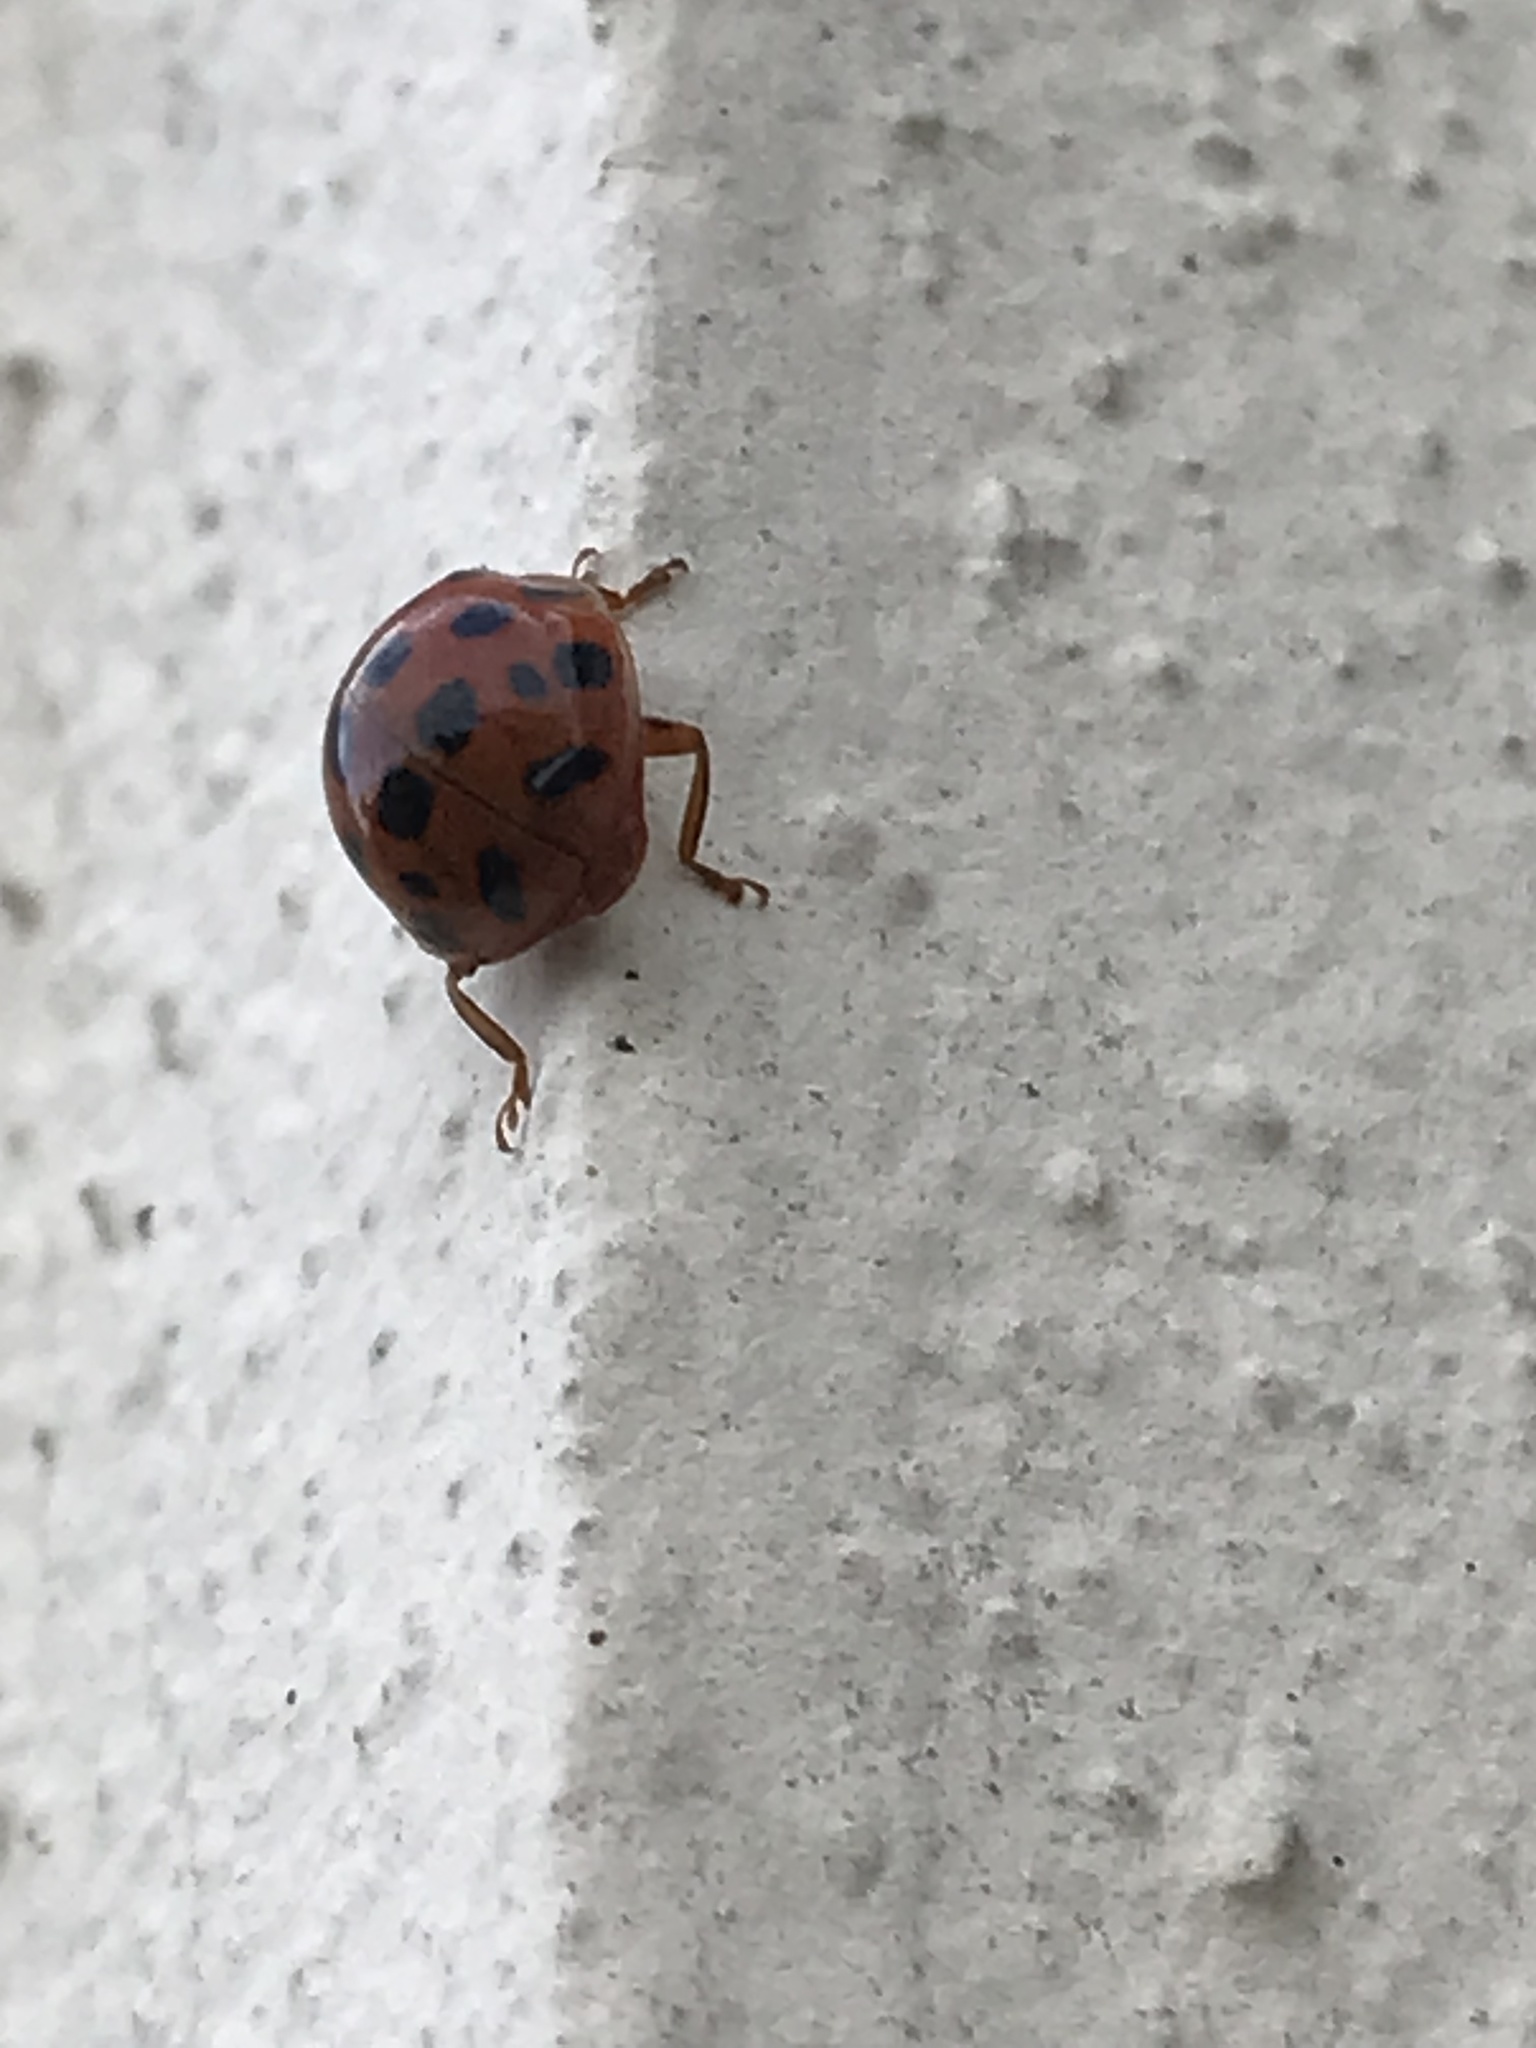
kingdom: Animalia
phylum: Arthropoda
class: Insecta
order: Coleoptera
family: Coccinellidae
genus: Harmonia
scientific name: Harmonia axyridis
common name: Harlequin ladybird
